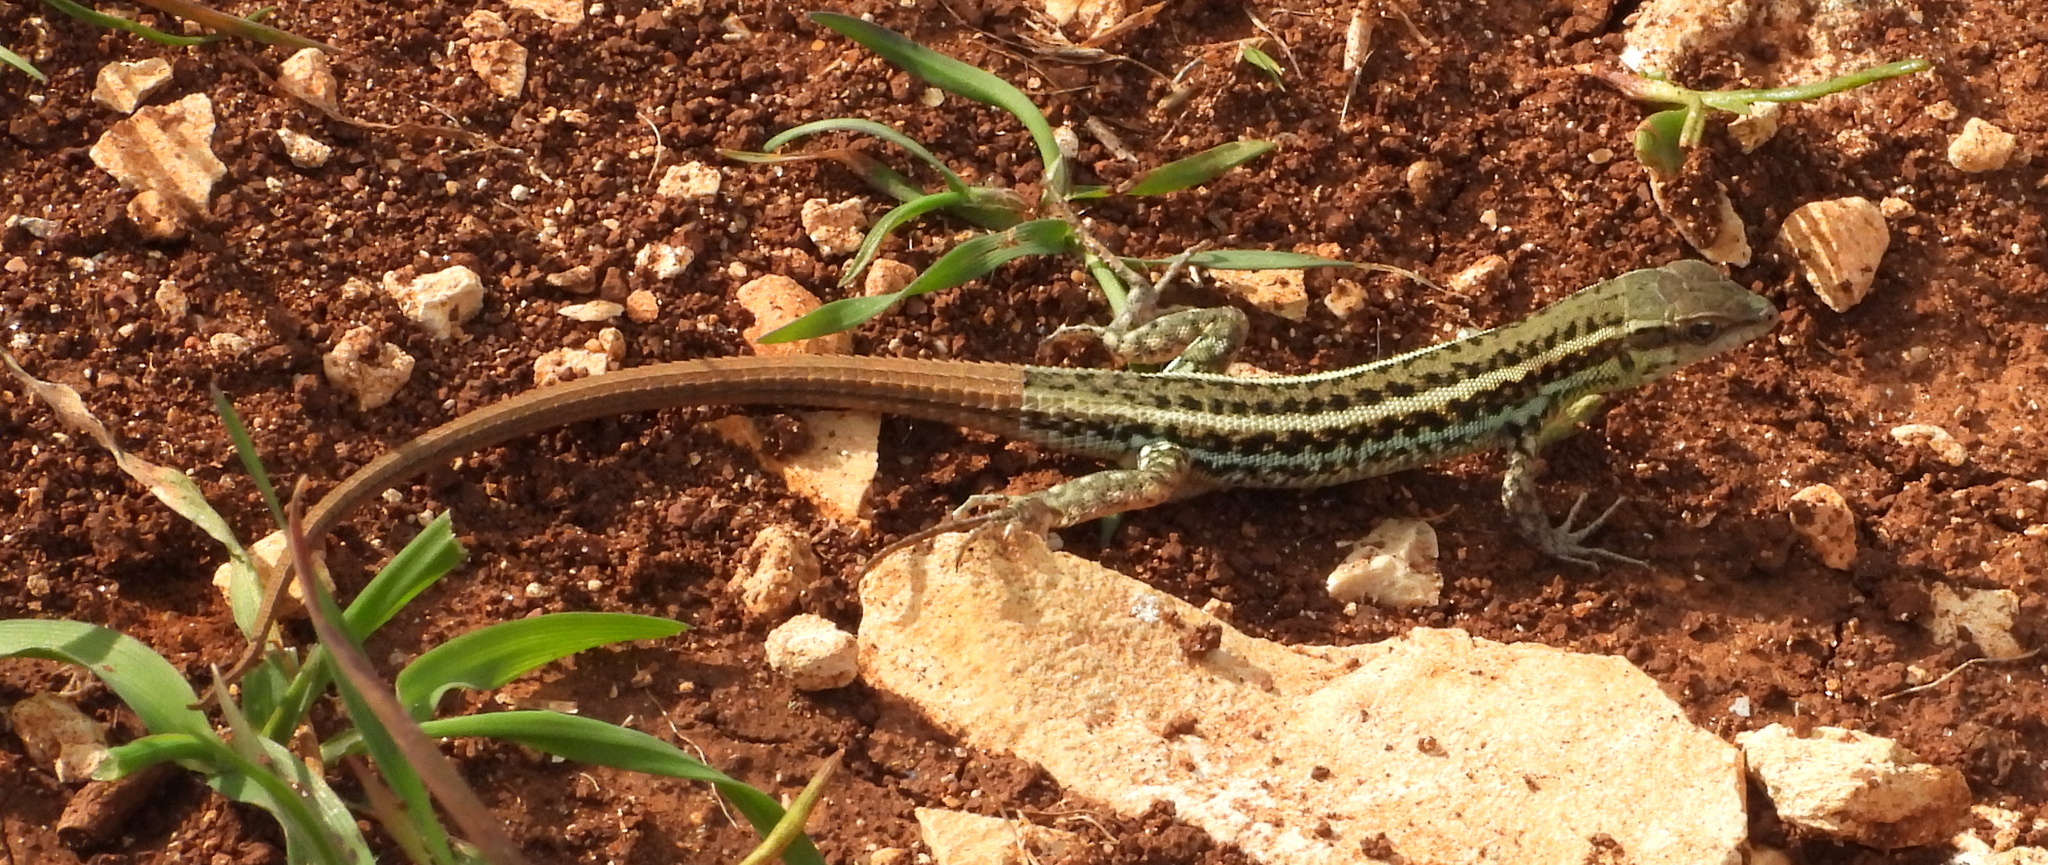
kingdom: Animalia
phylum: Chordata
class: Squamata
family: Lacertidae
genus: Ophisops
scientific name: Ophisops elegans
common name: Snake-eyed lizard
